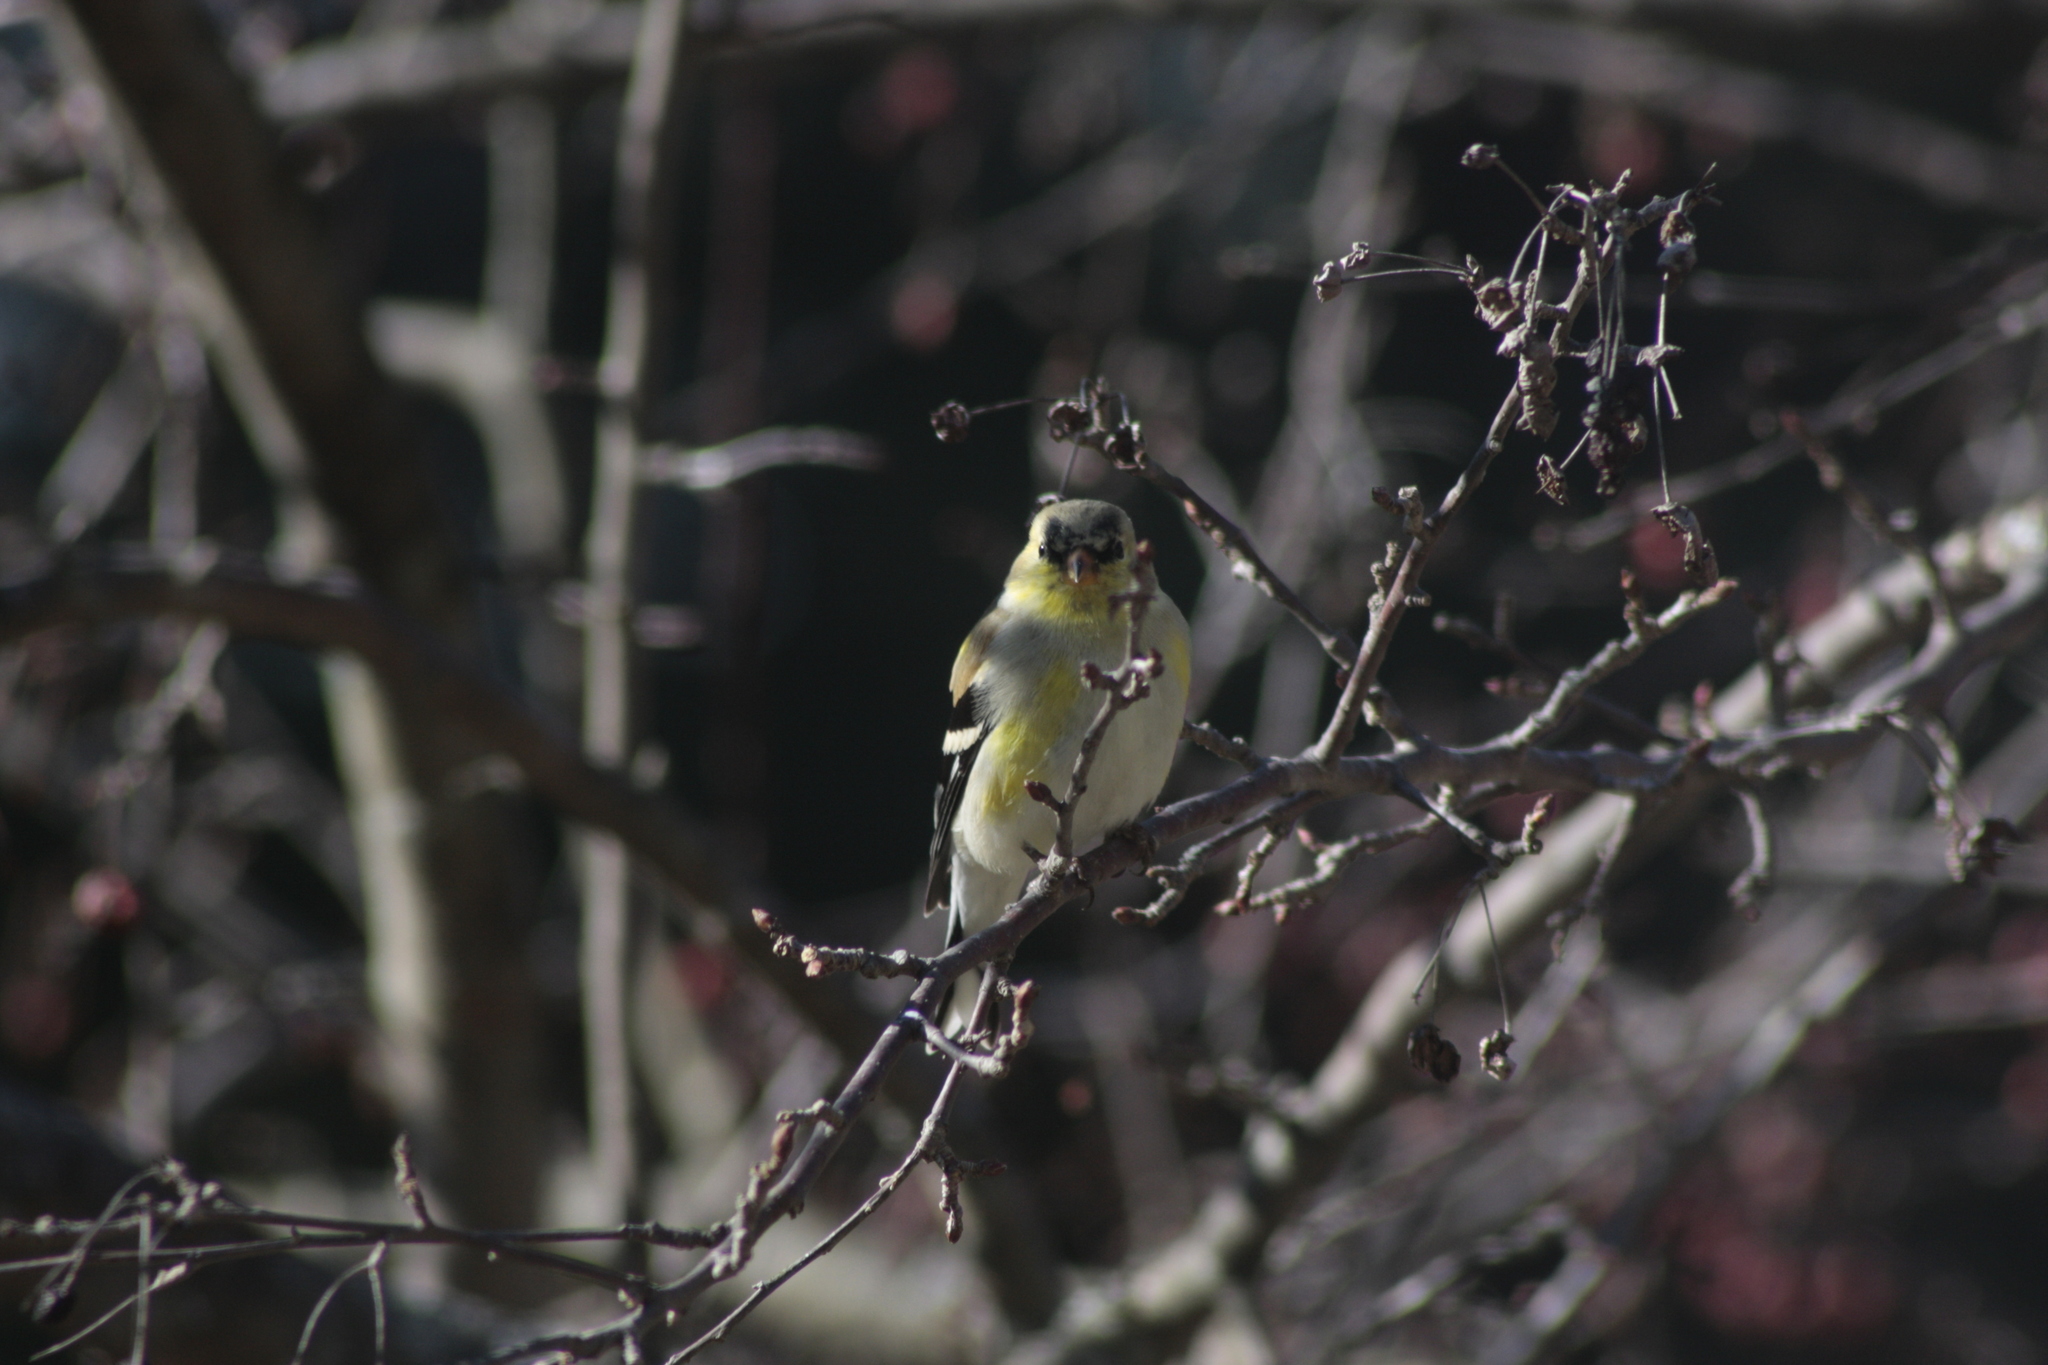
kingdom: Animalia
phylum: Chordata
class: Aves
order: Passeriformes
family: Fringillidae
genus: Spinus
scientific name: Spinus tristis
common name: American goldfinch
